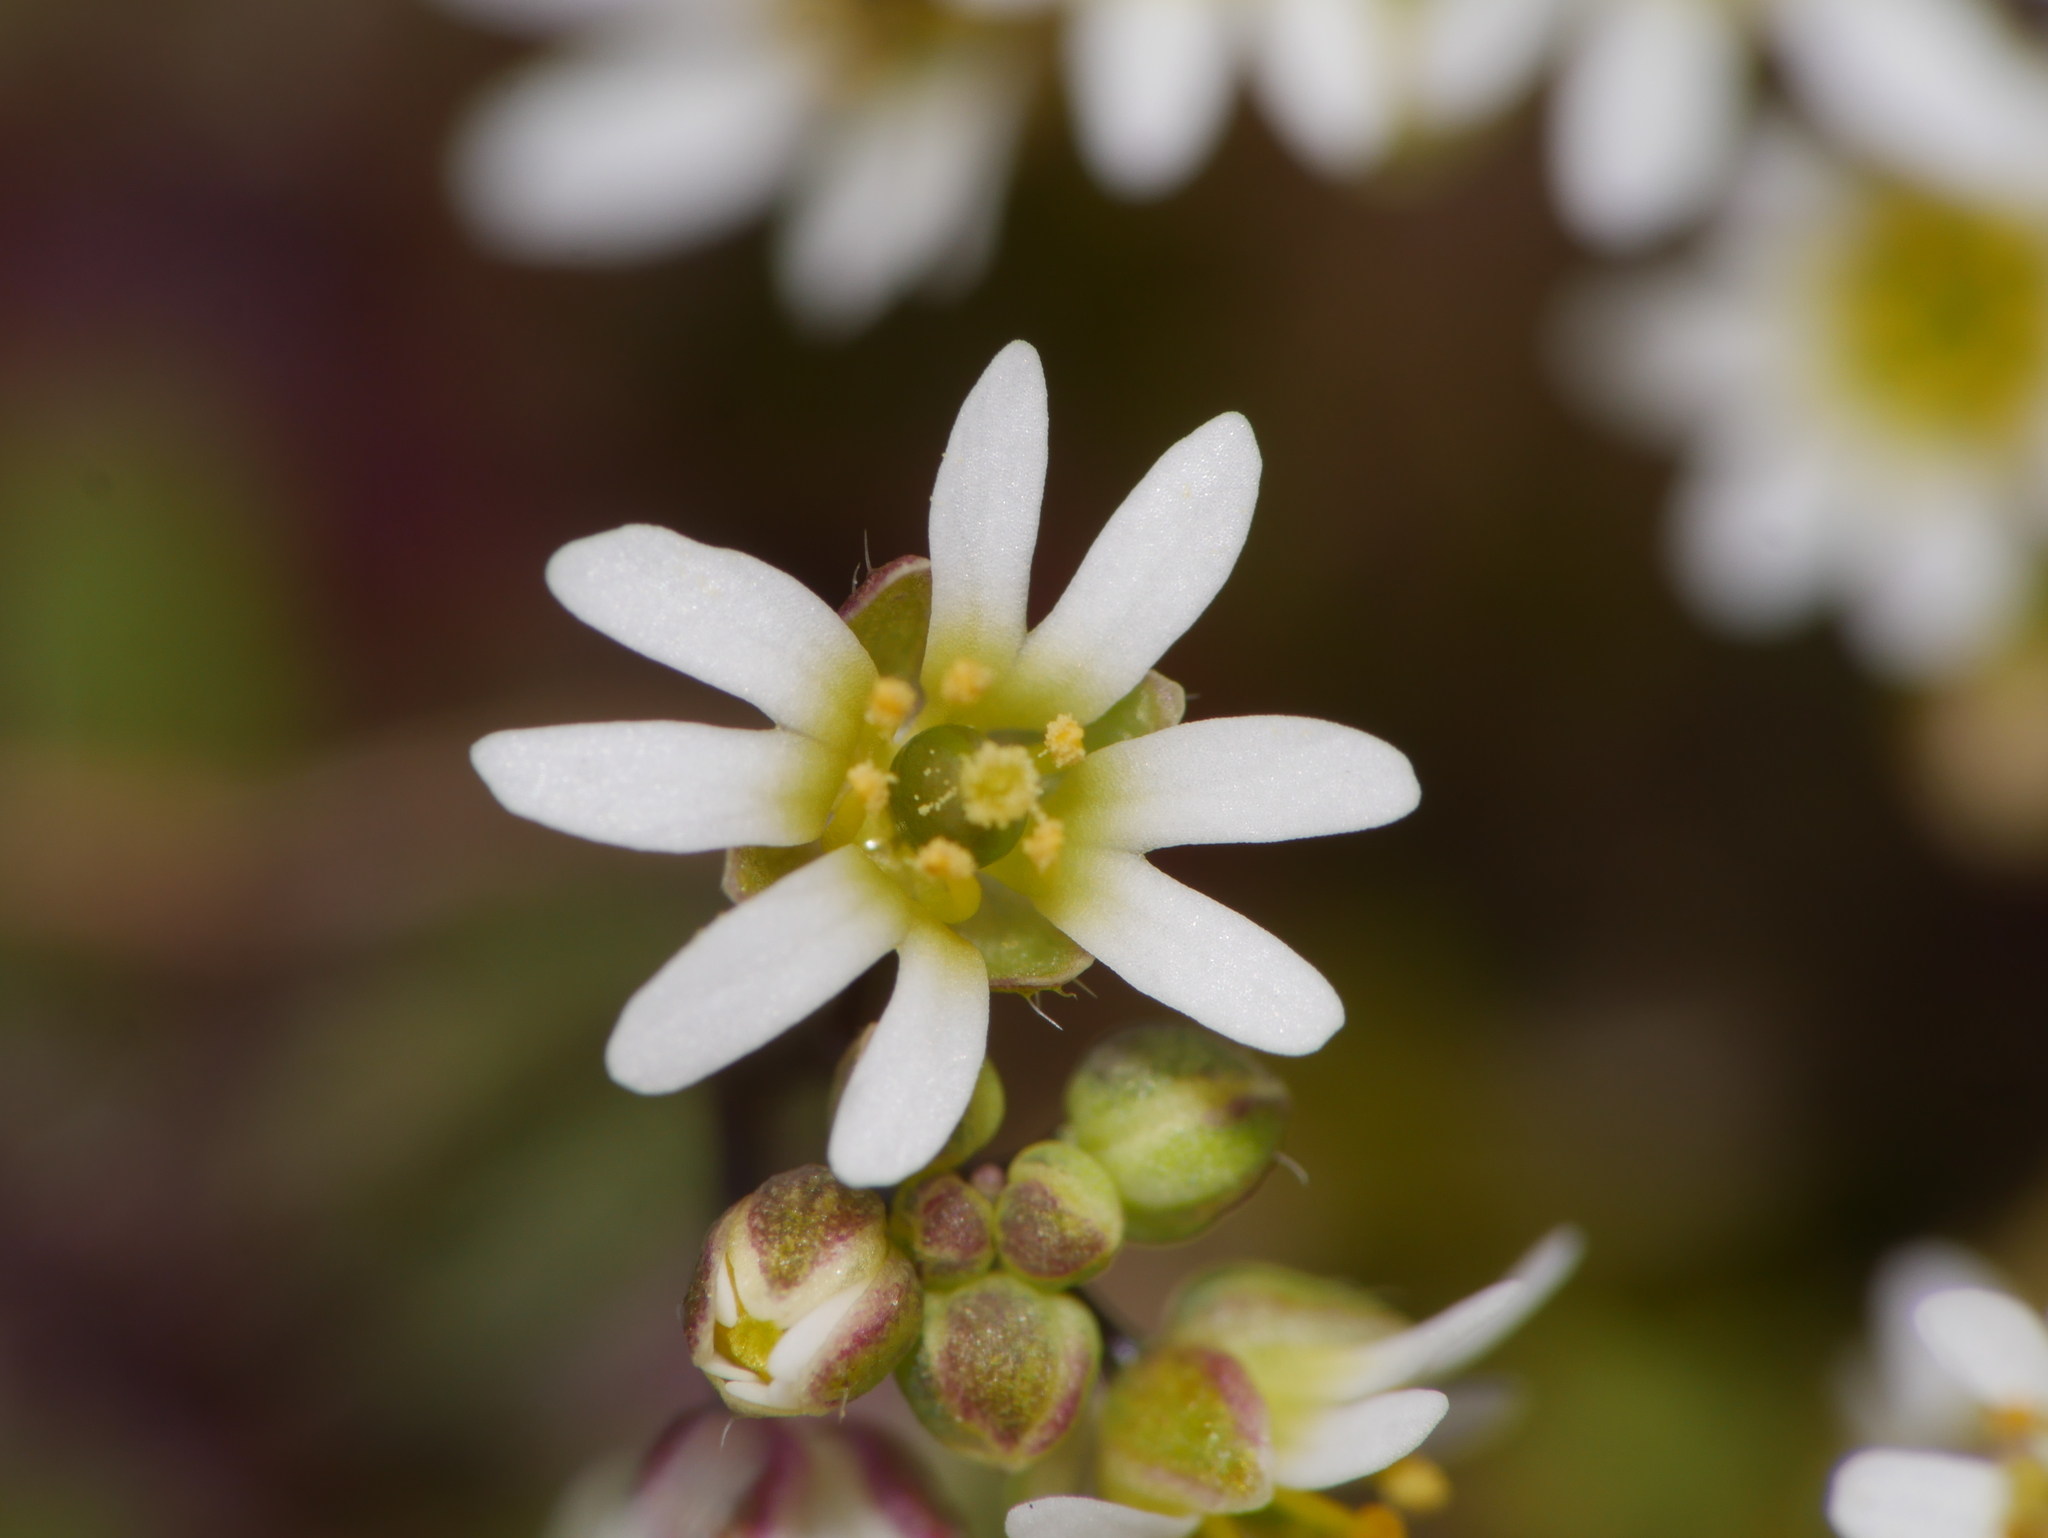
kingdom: Plantae
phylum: Tracheophyta
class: Magnoliopsida
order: Brassicales
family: Brassicaceae
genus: Draba
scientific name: Draba verna
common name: Spring draba
